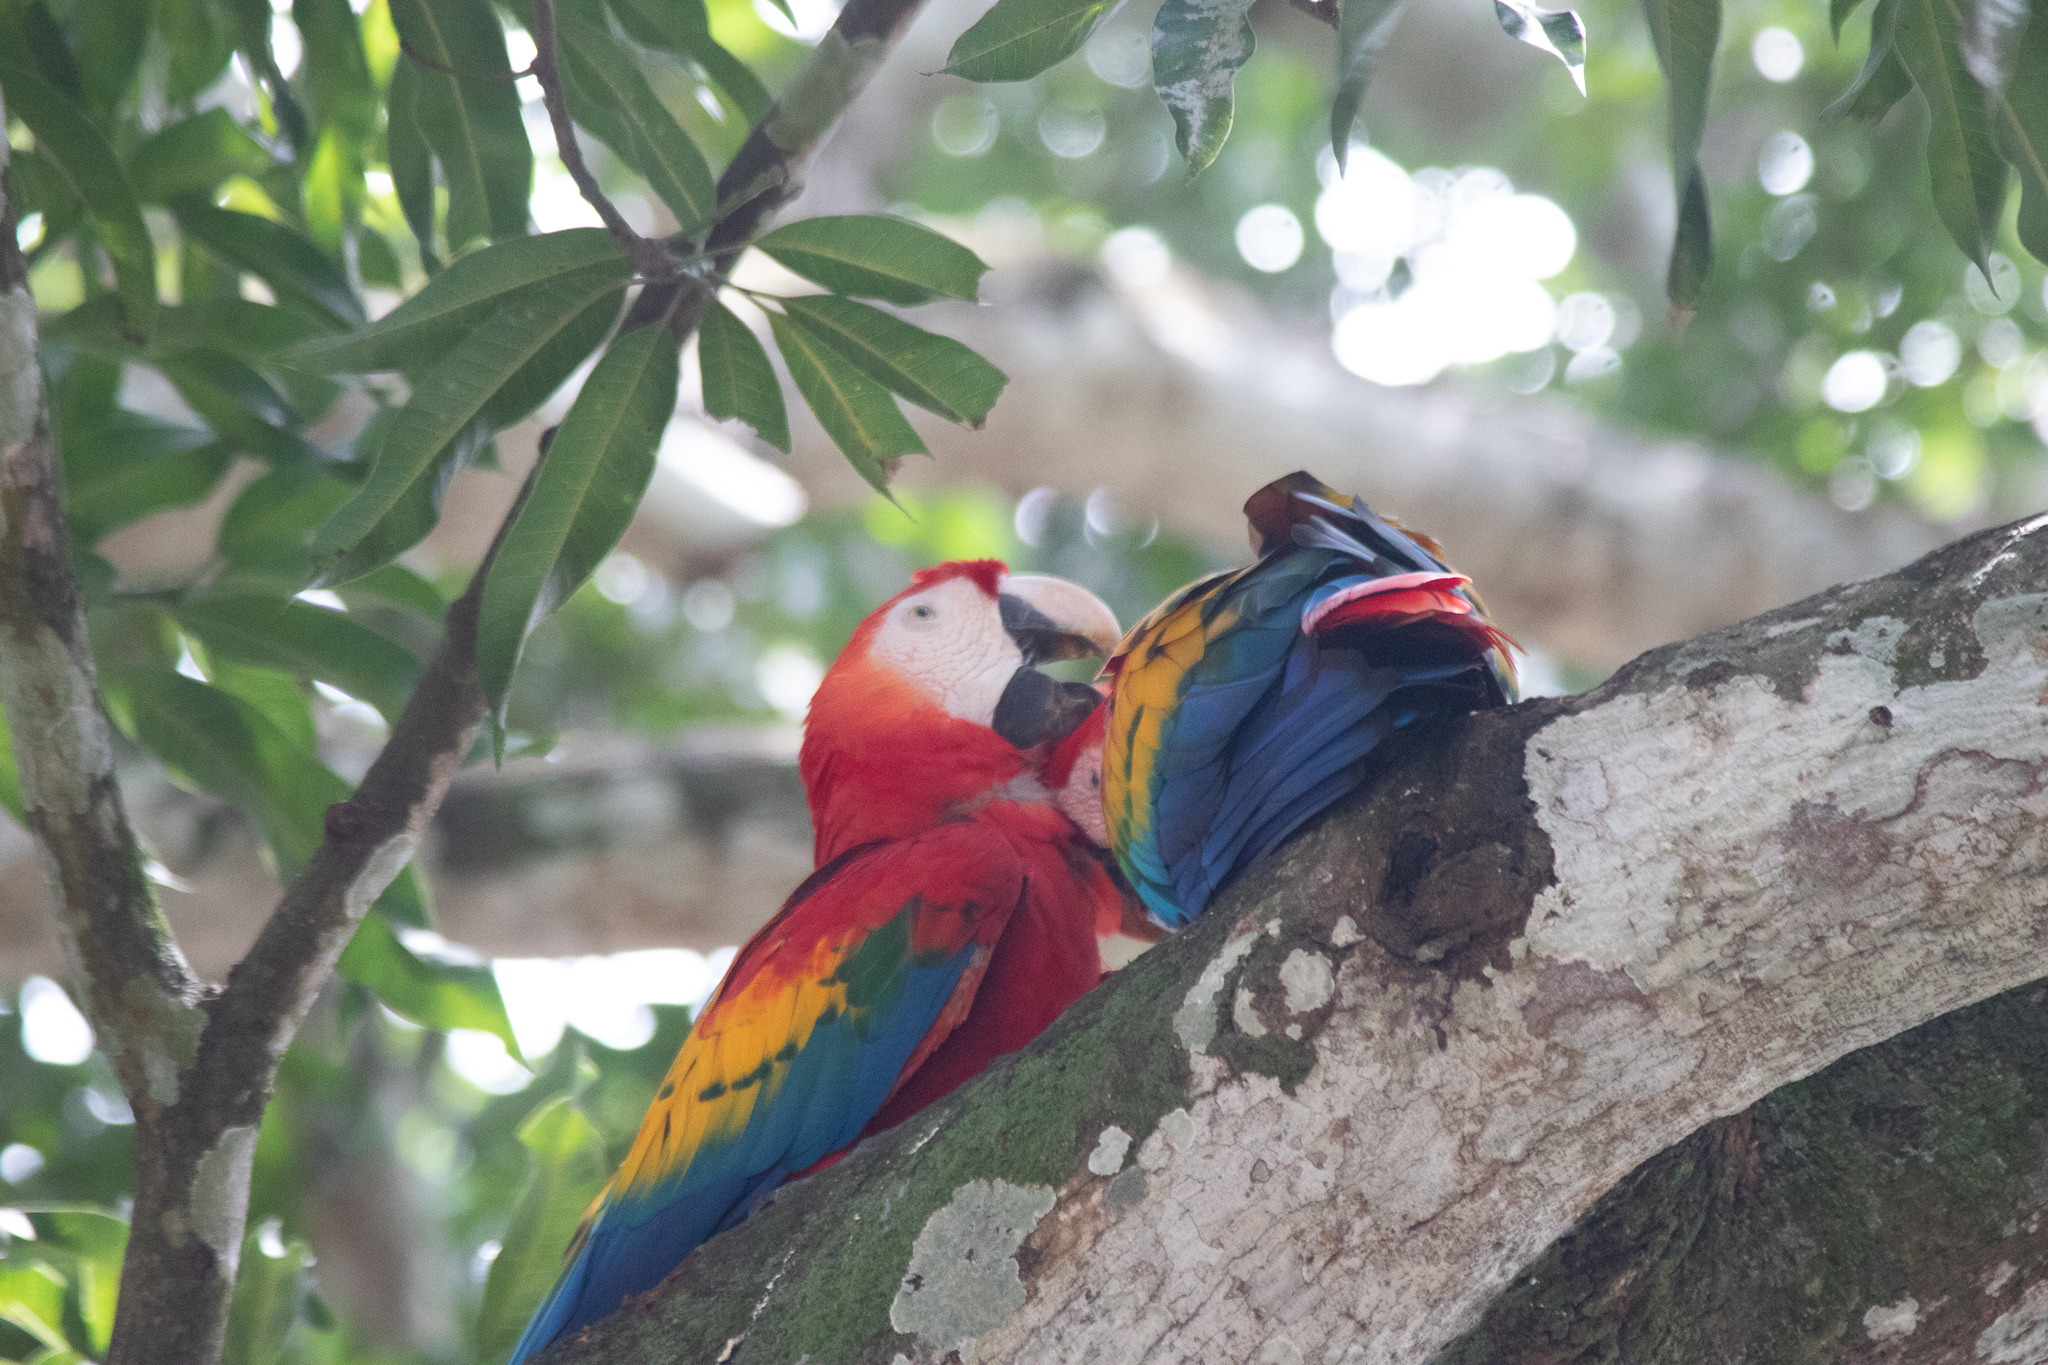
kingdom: Animalia
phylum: Chordata
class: Aves
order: Psittaciformes
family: Psittacidae
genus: Ara
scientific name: Ara macao
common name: Scarlet macaw
